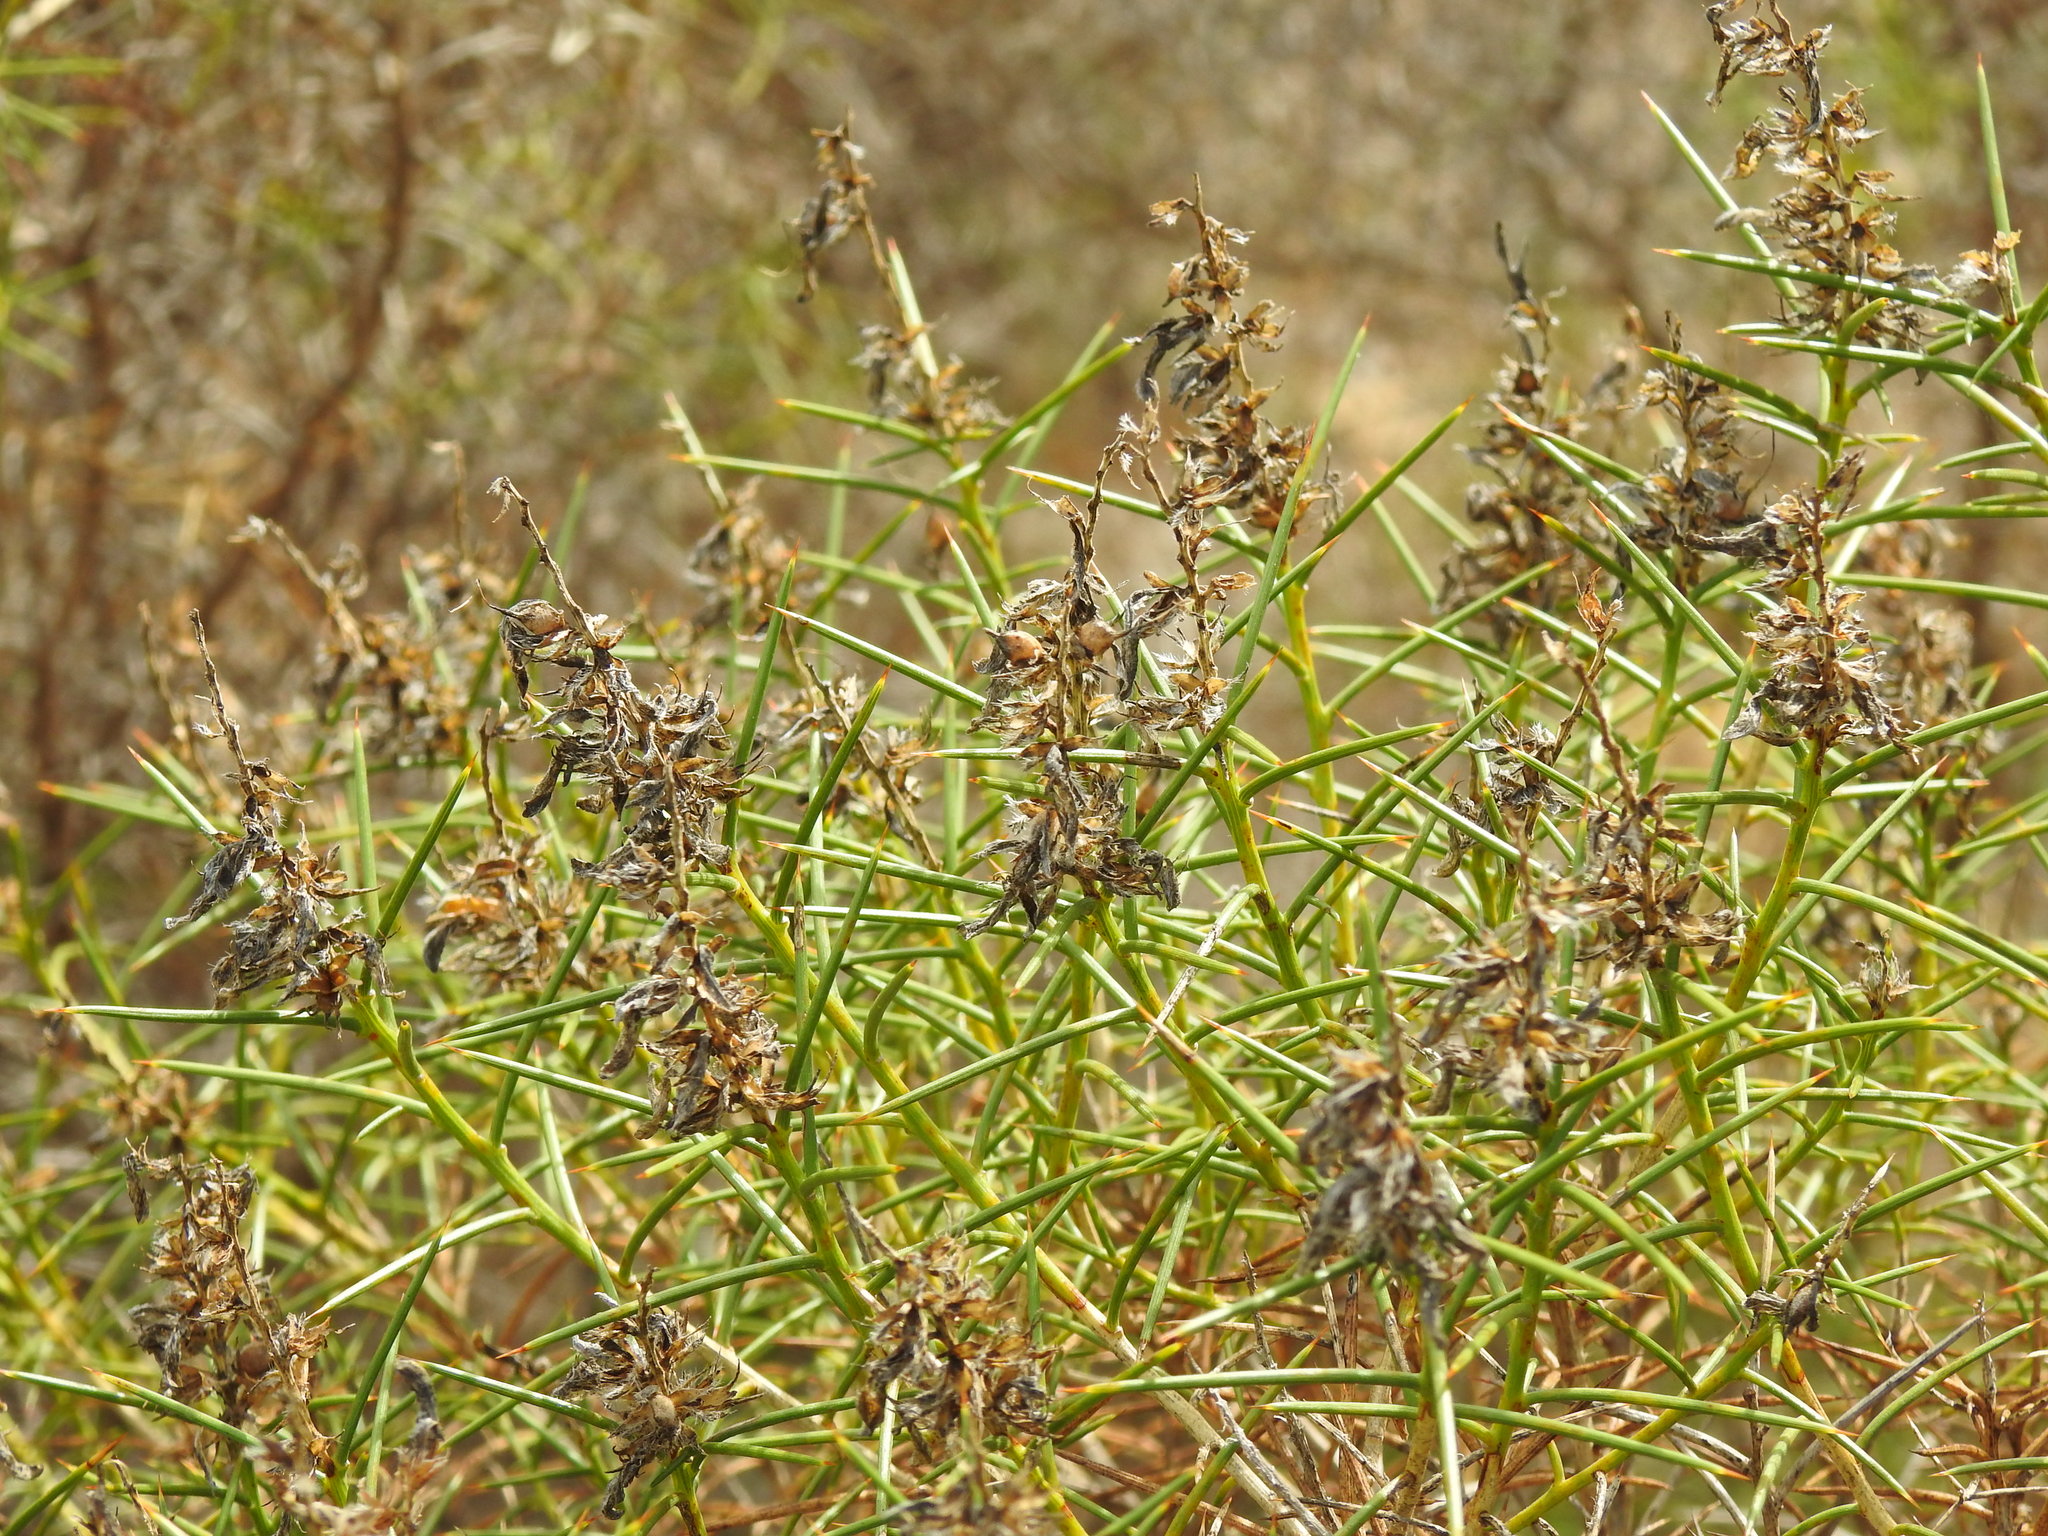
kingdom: Plantae
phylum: Tracheophyta
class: Magnoliopsida
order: Fabales
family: Fabaceae
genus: Genista
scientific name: Genista hirsuta
